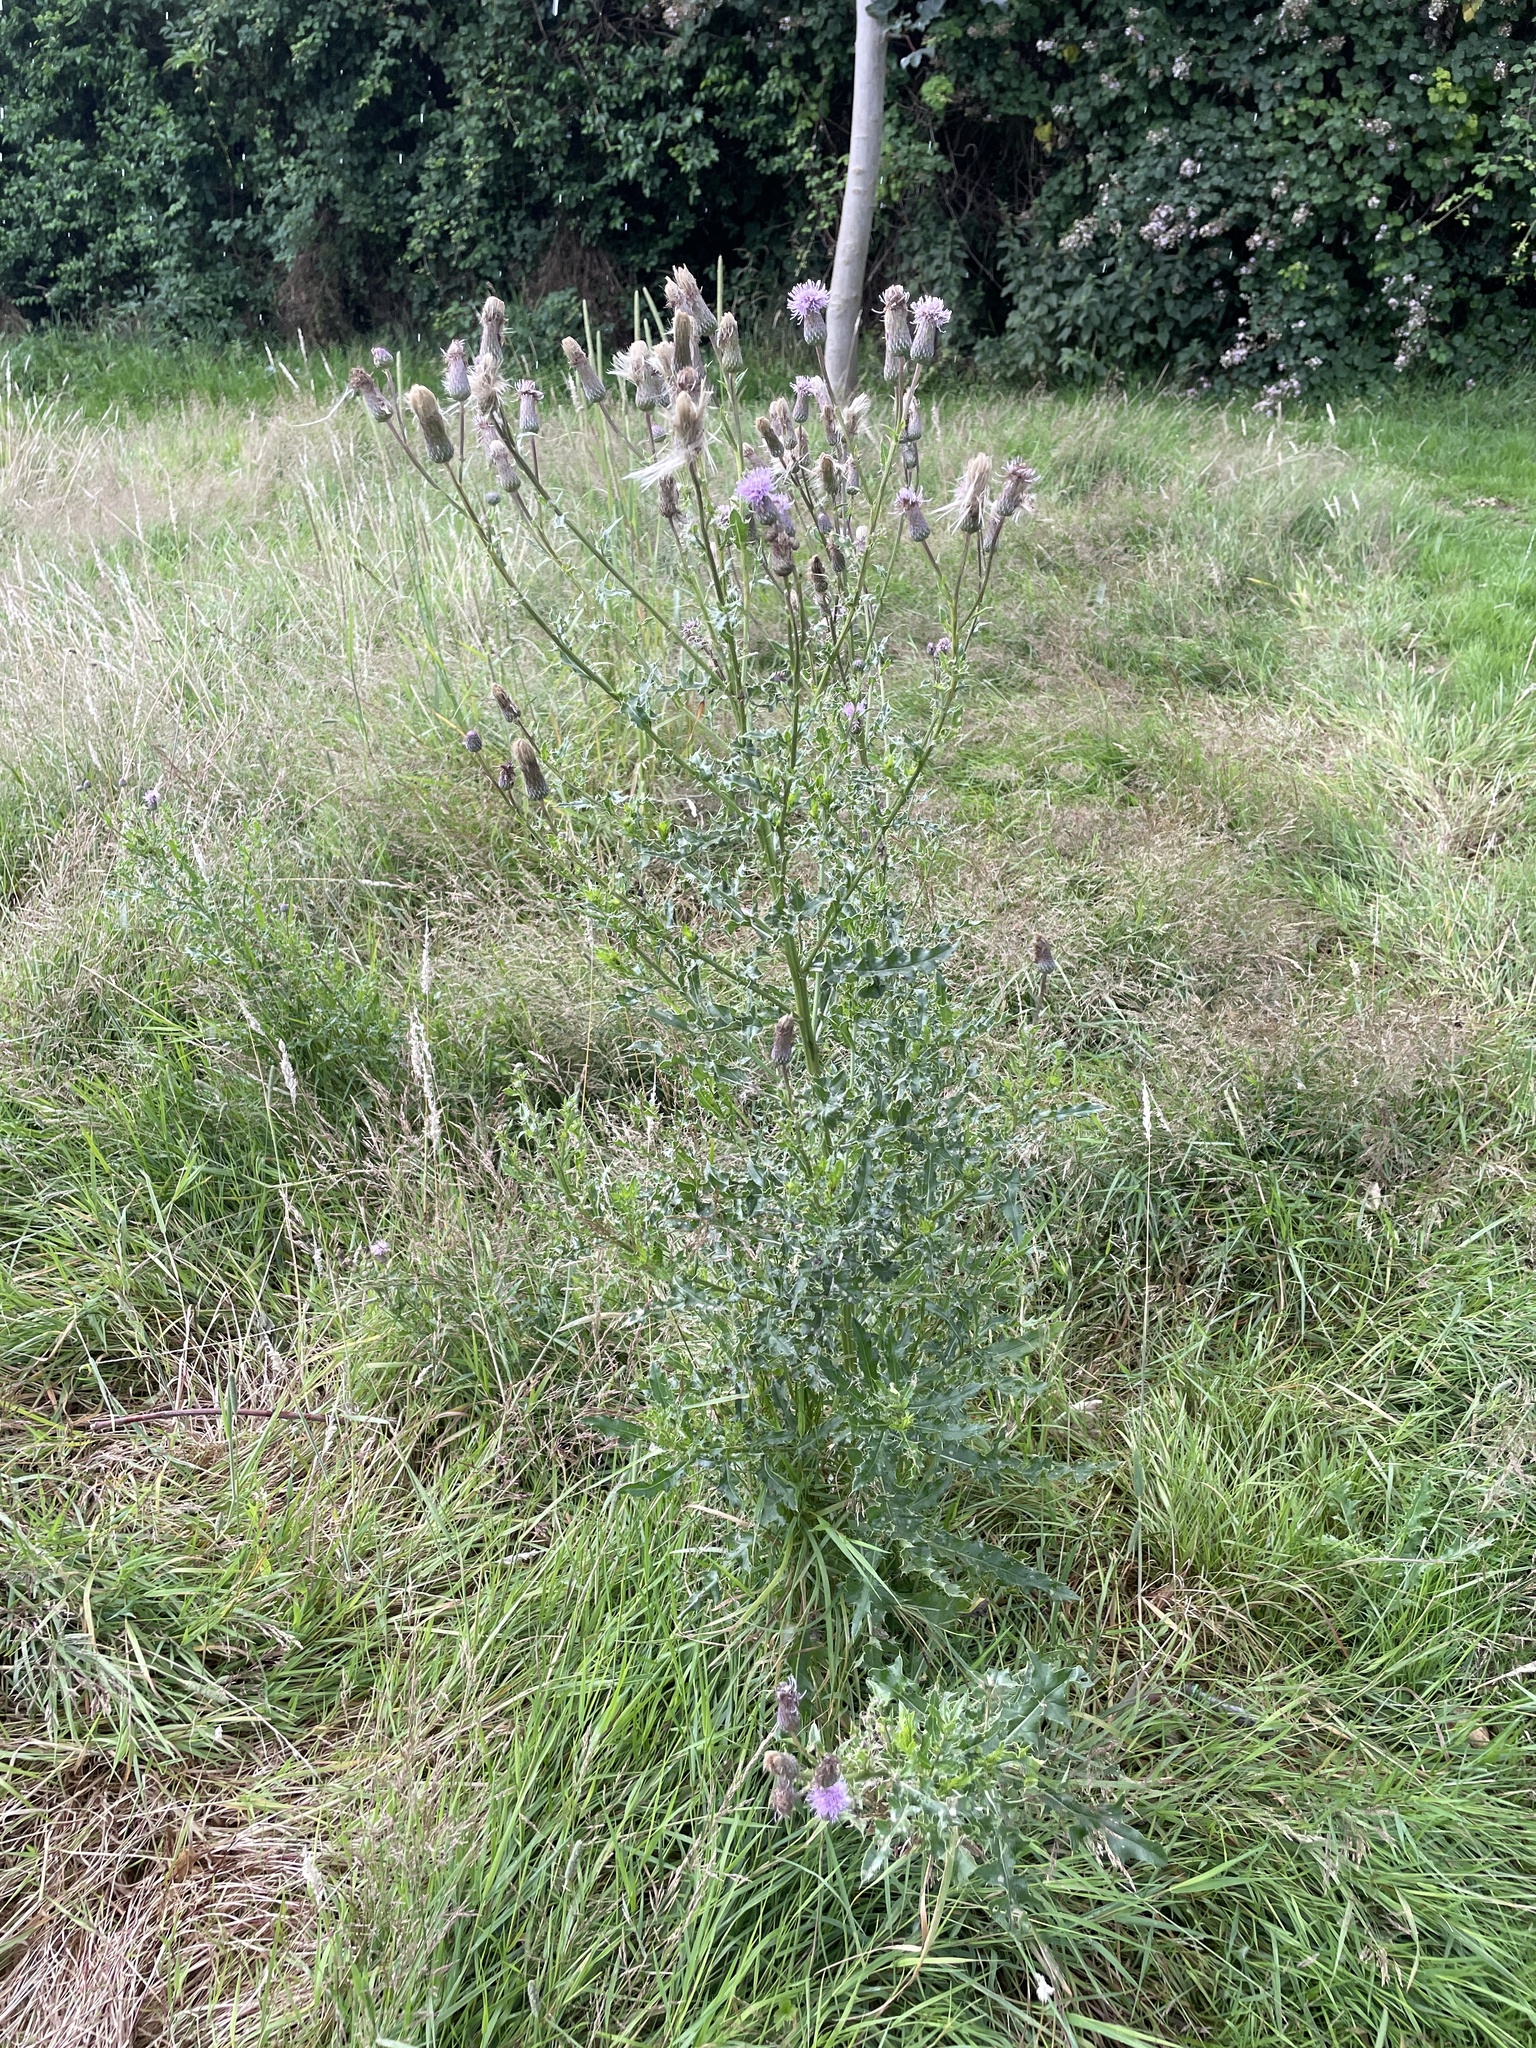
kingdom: Plantae
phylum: Tracheophyta
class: Magnoliopsida
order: Asterales
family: Asteraceae
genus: Cirsium
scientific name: Cirsium arvense
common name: Creeping thistle
